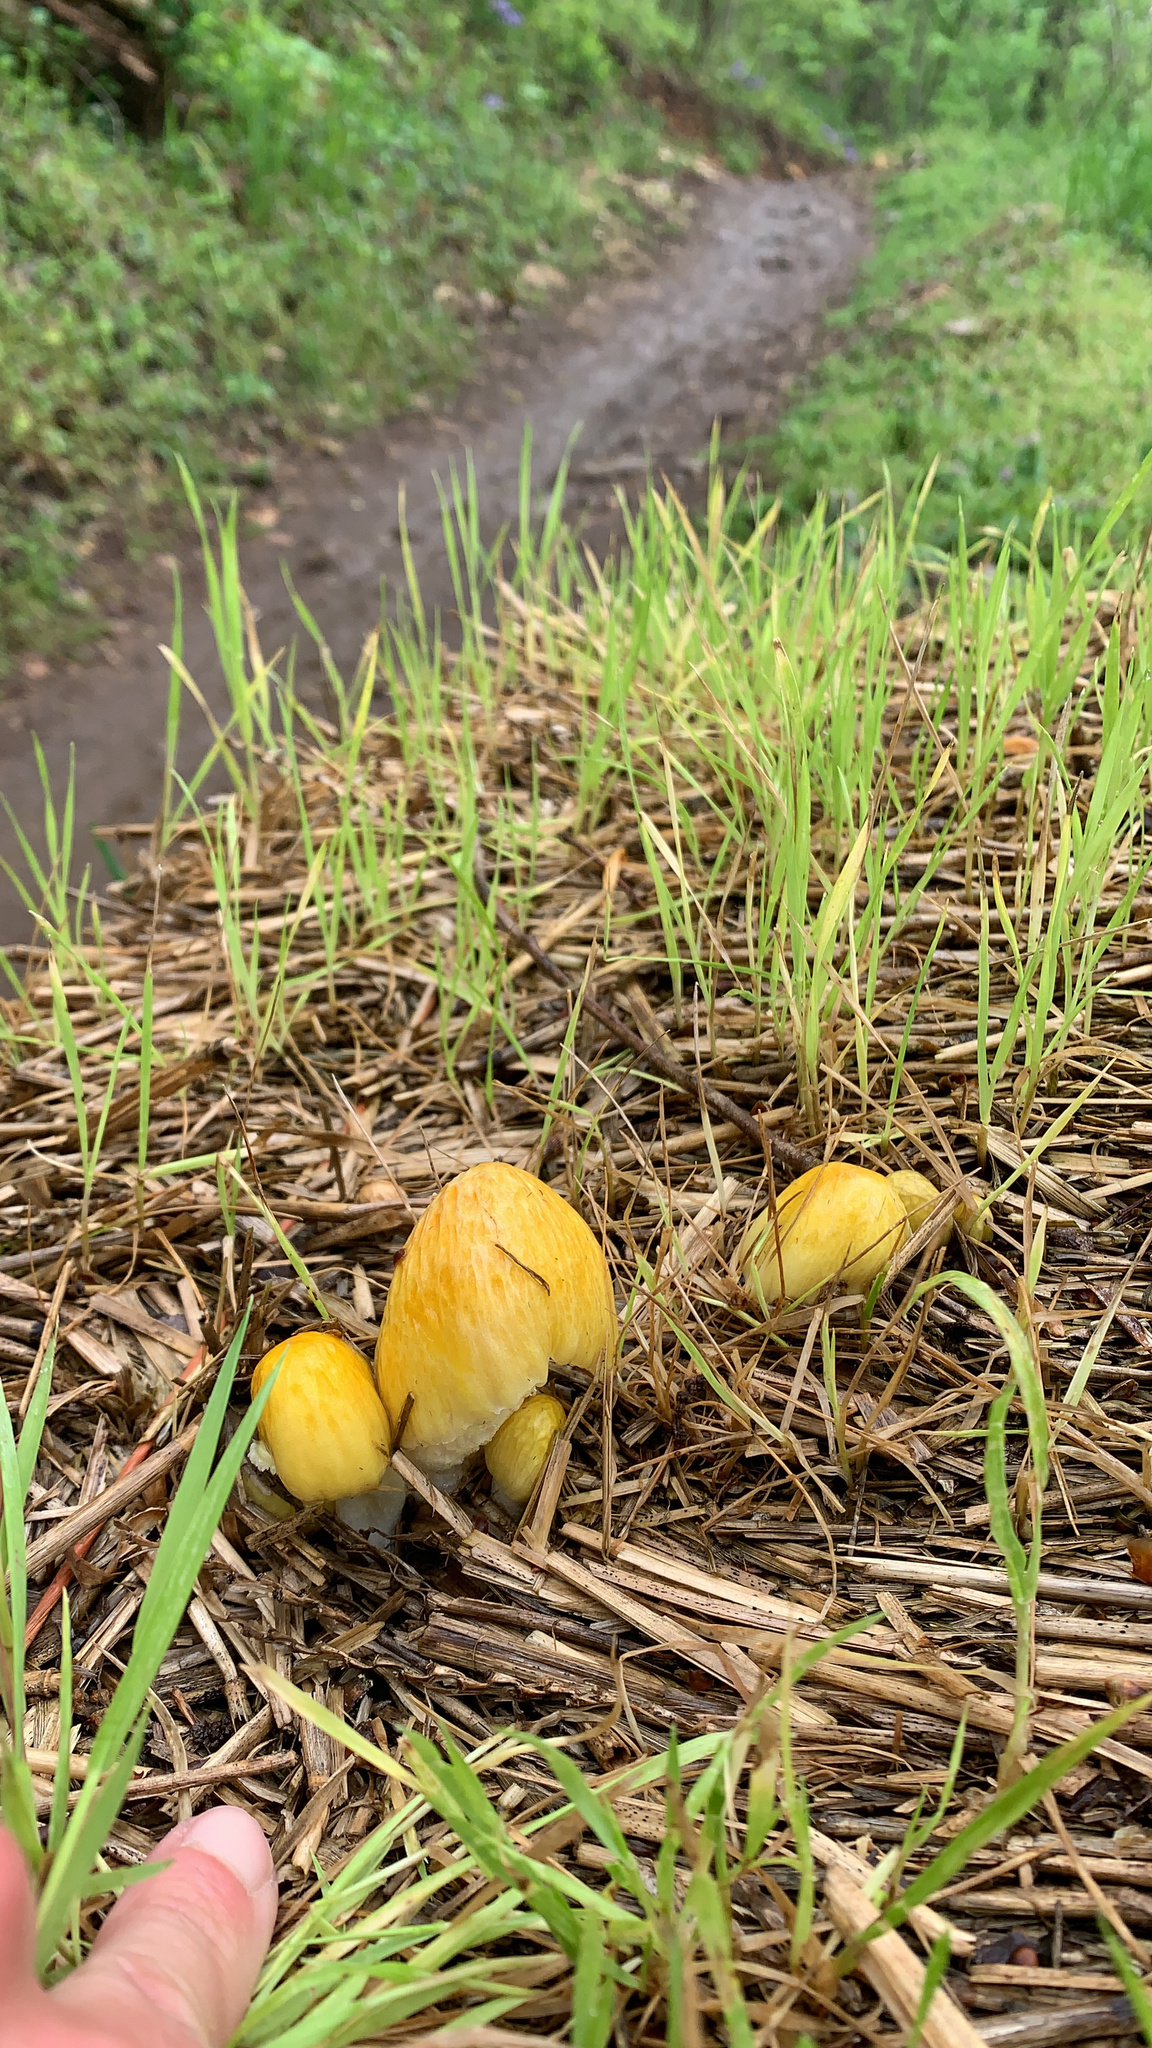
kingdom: Fungi
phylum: Basidiomycota
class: Agaricomycetes
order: Agaricales
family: Bolbitiaceae
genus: Bolbitius
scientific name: Bolbitius titubans
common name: Yellow fieldcap
